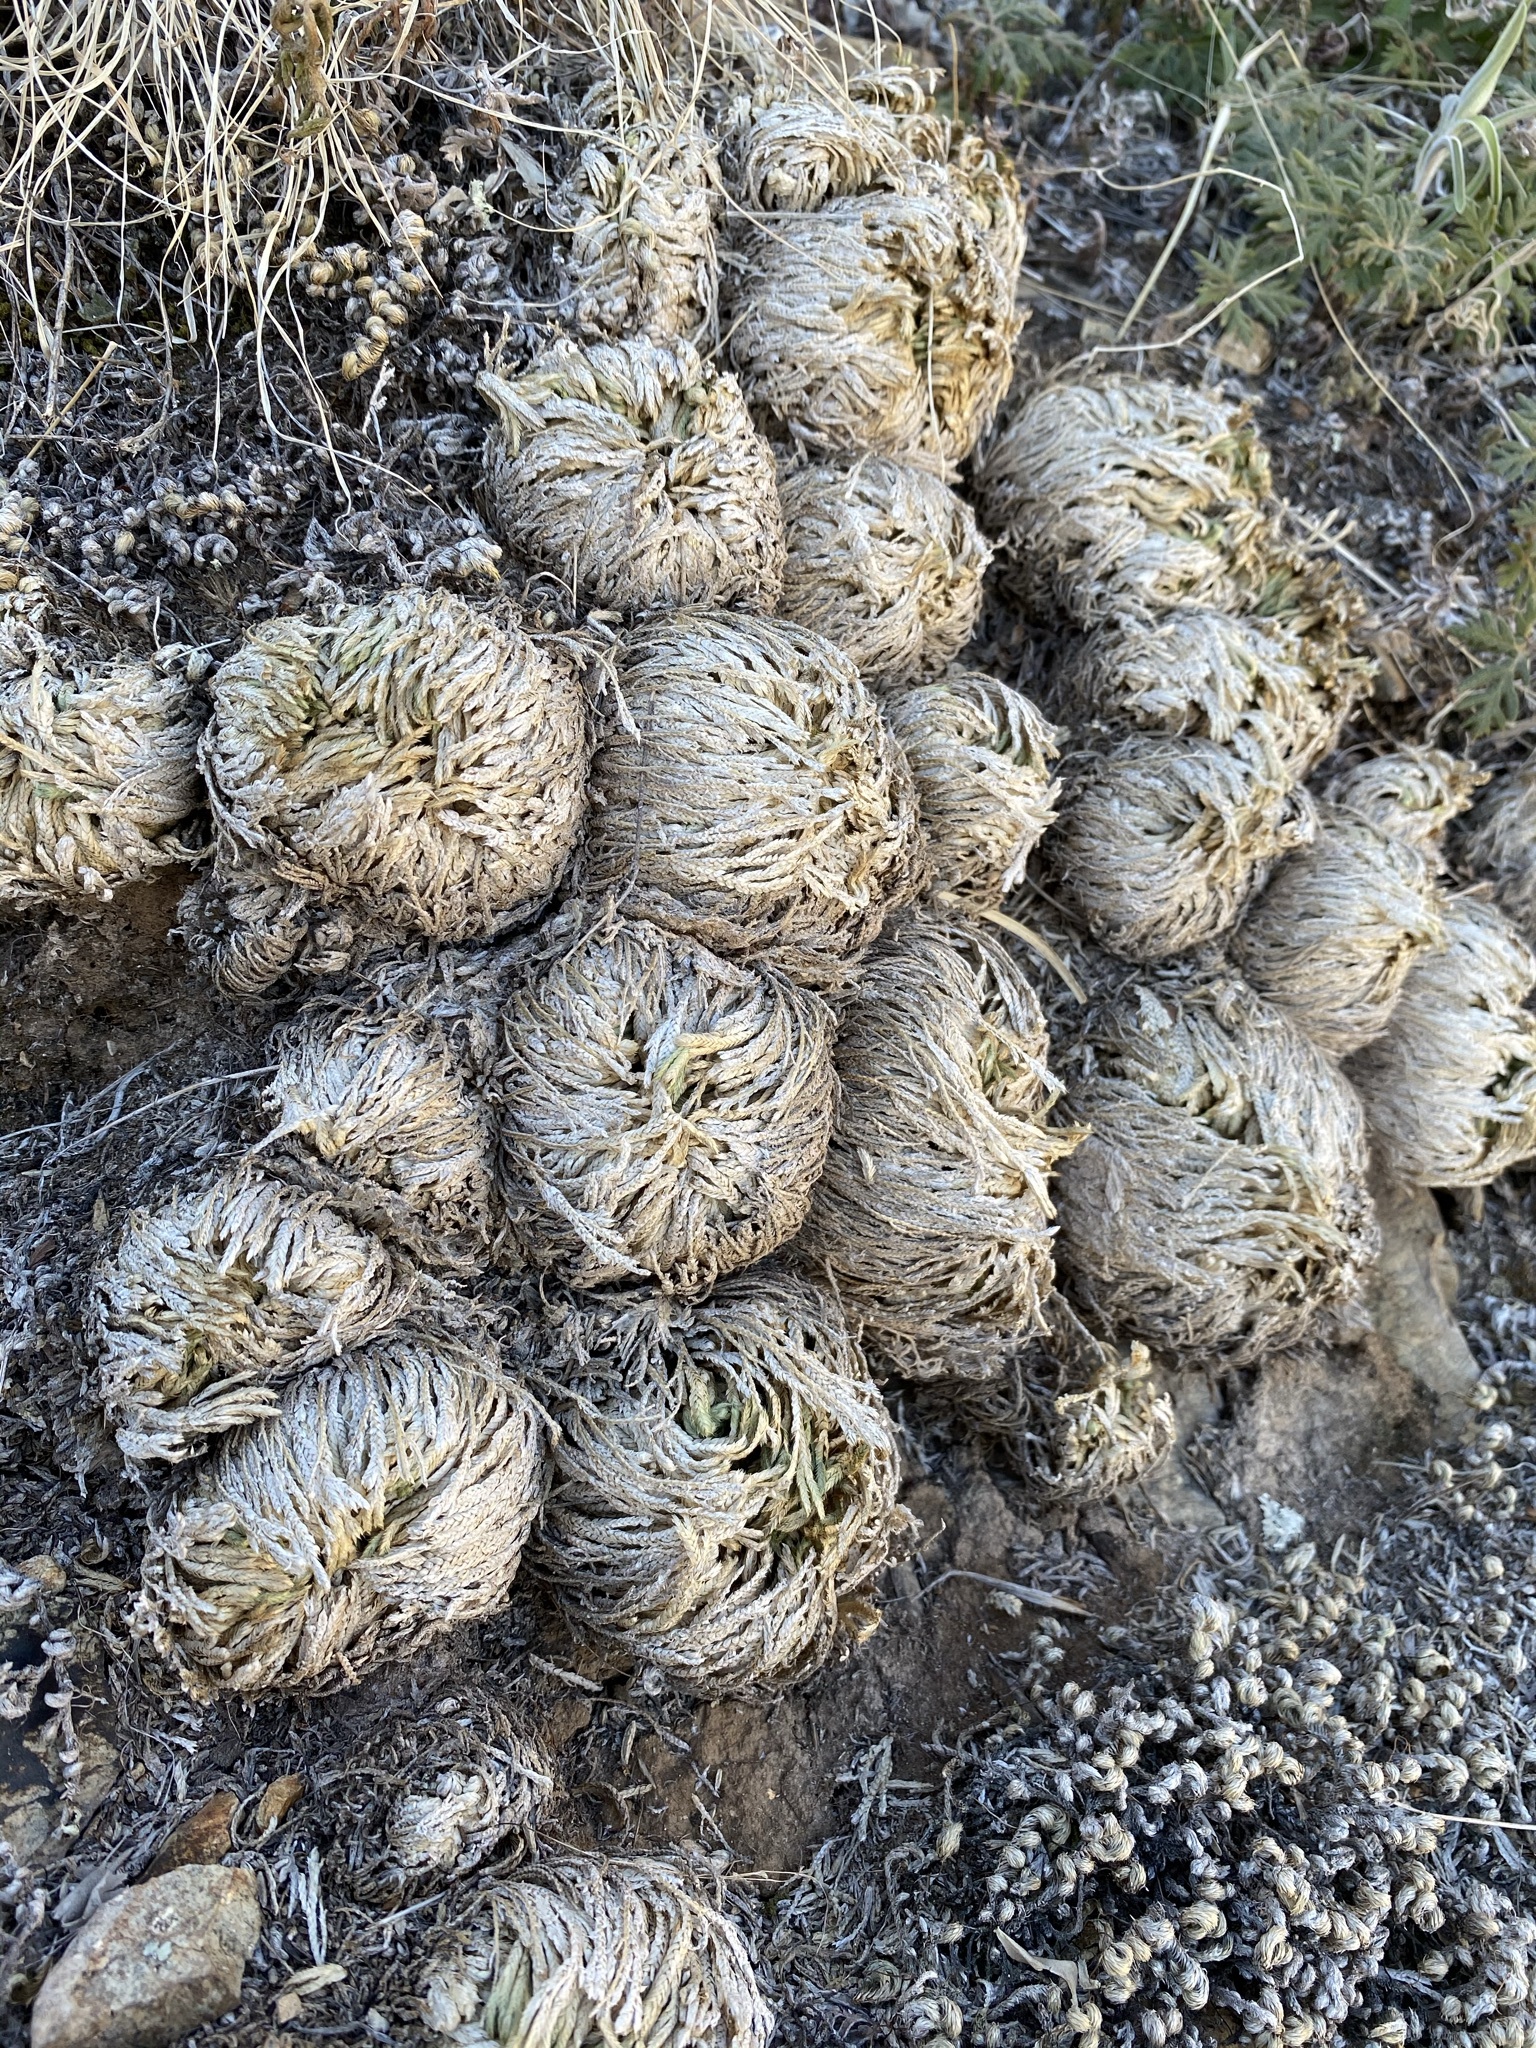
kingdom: Plantae
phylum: Tracheophyta
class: Lycopodiopsida
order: Selaginellales
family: Selaginellaceae
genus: Selaginella
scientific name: Selaginella pilifera
